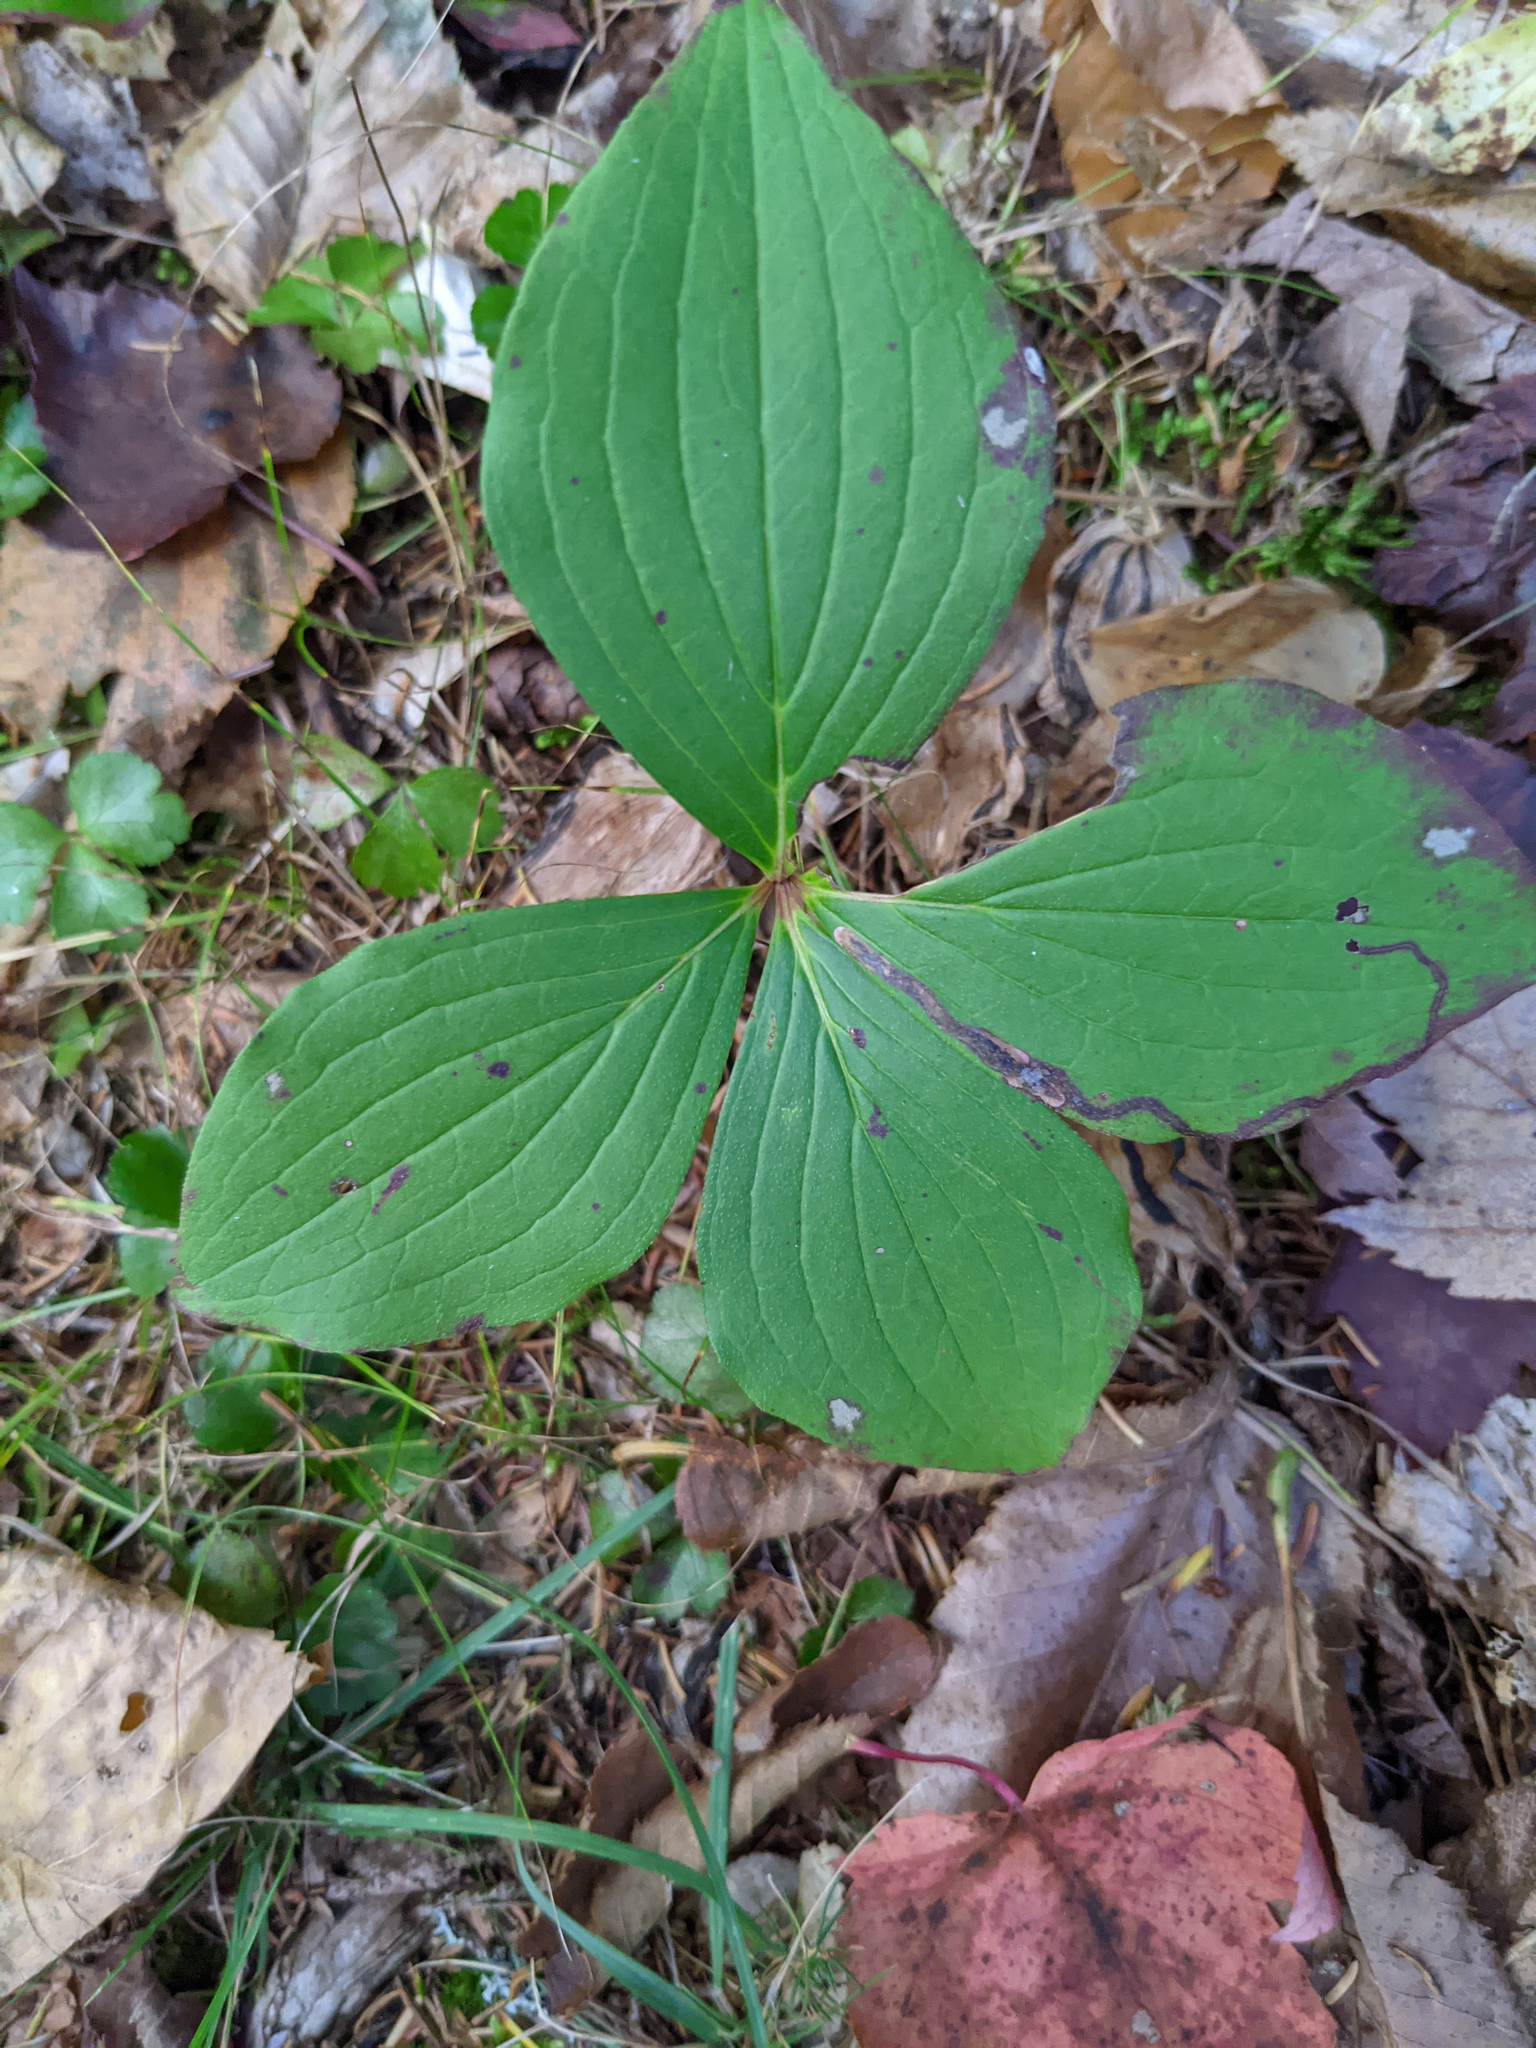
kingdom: Plantae
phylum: Tracheophyta
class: Magnoliopsida
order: Cornales
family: Cornaceae
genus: Cornus
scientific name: Cornus canadensis
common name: Creeping dogwood
